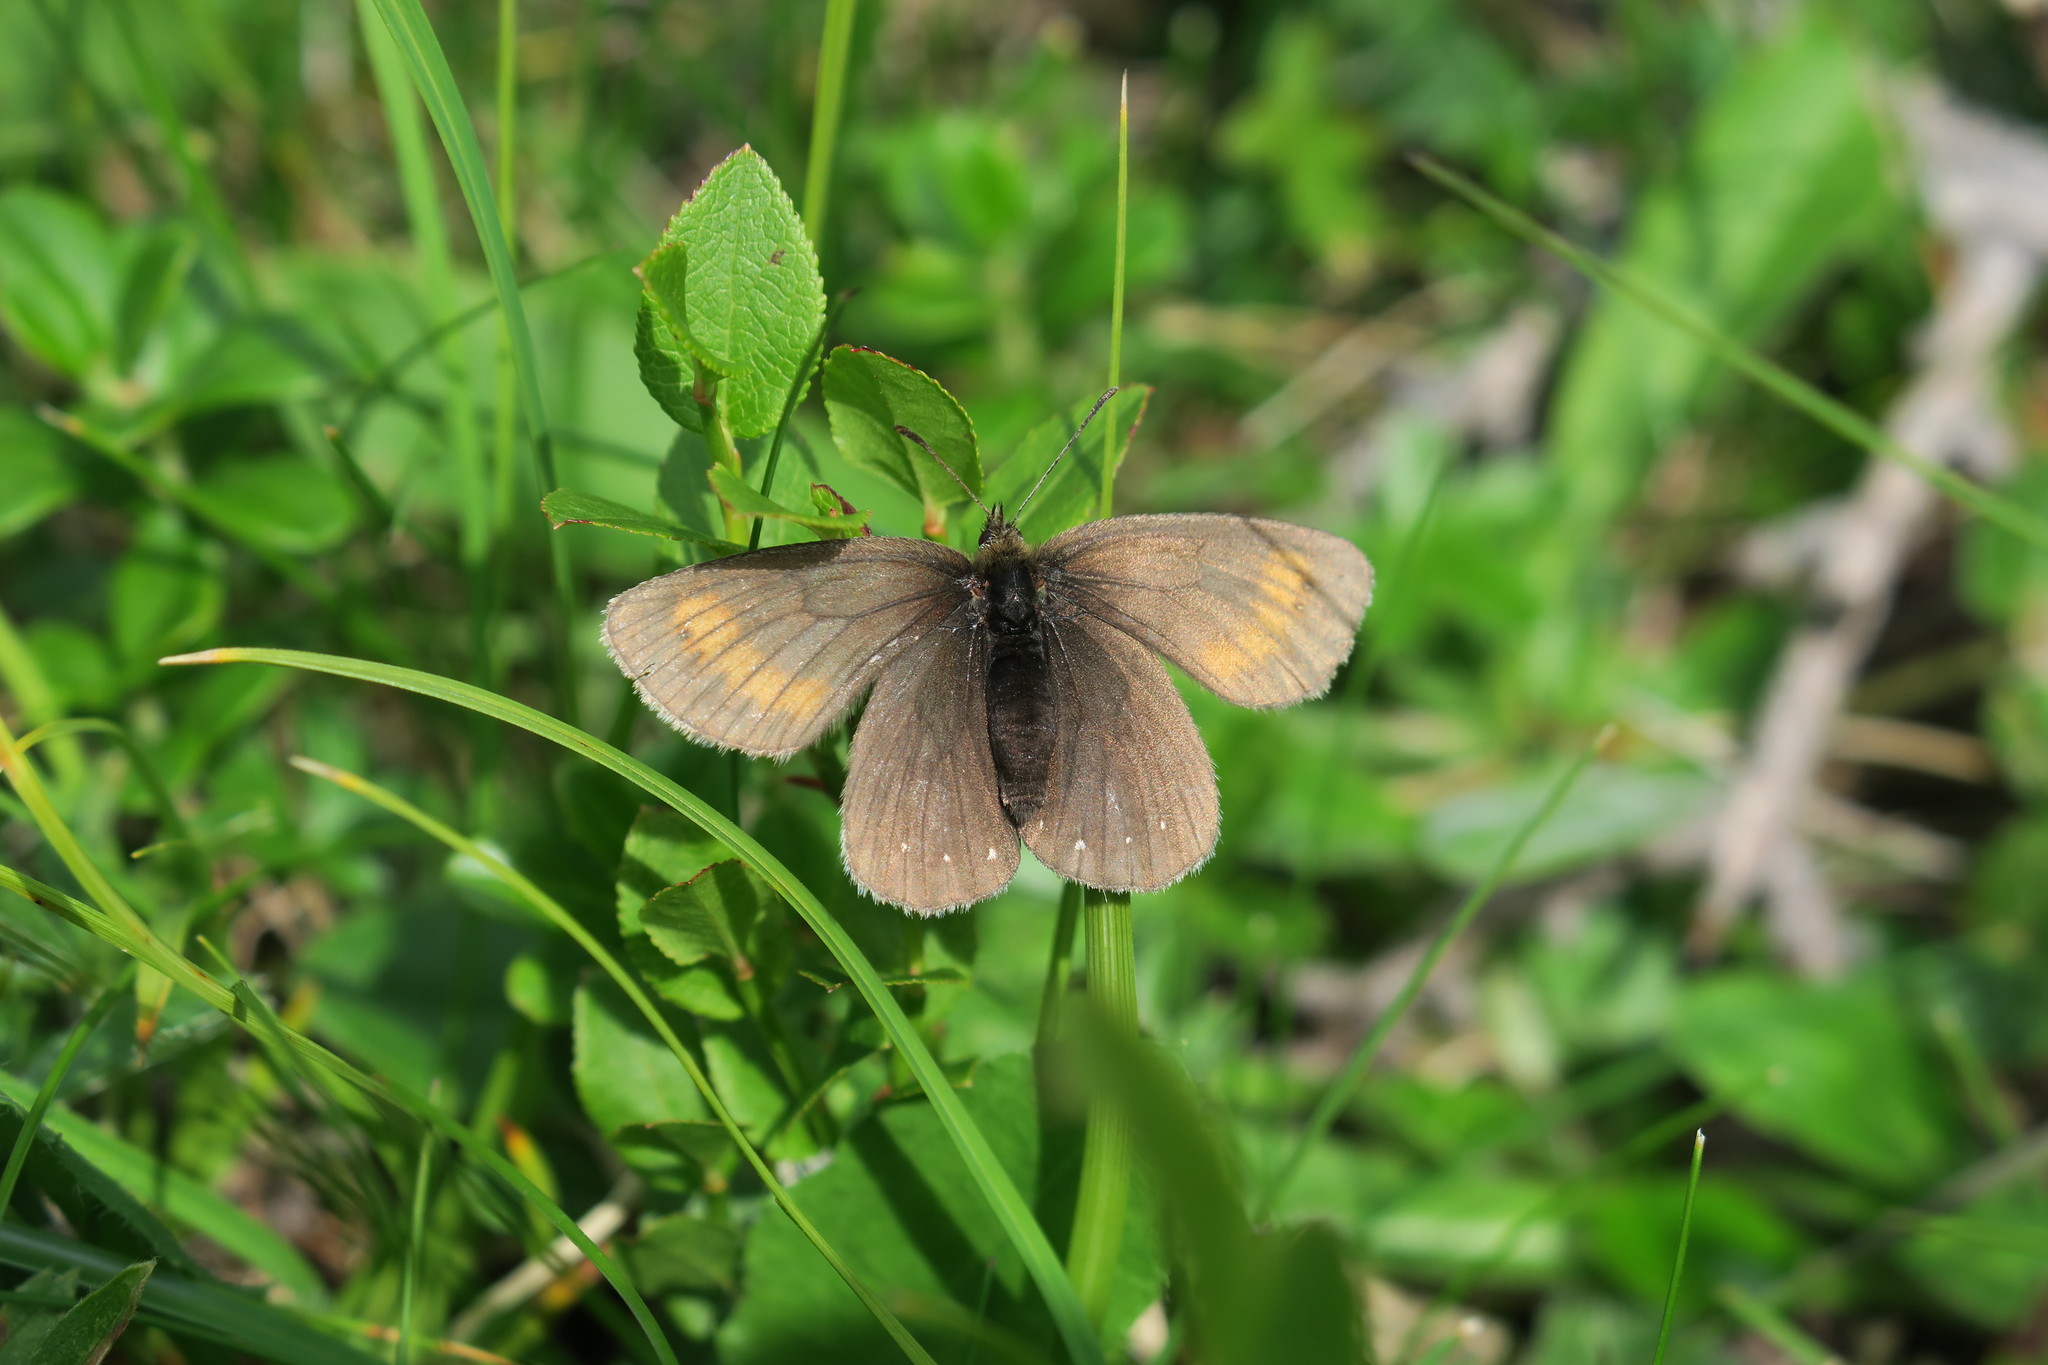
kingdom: Animalia
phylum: Arthropoda
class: Insecta
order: Lepidoptera
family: Nymphalidae
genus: Erebia
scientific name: Erebia arete
